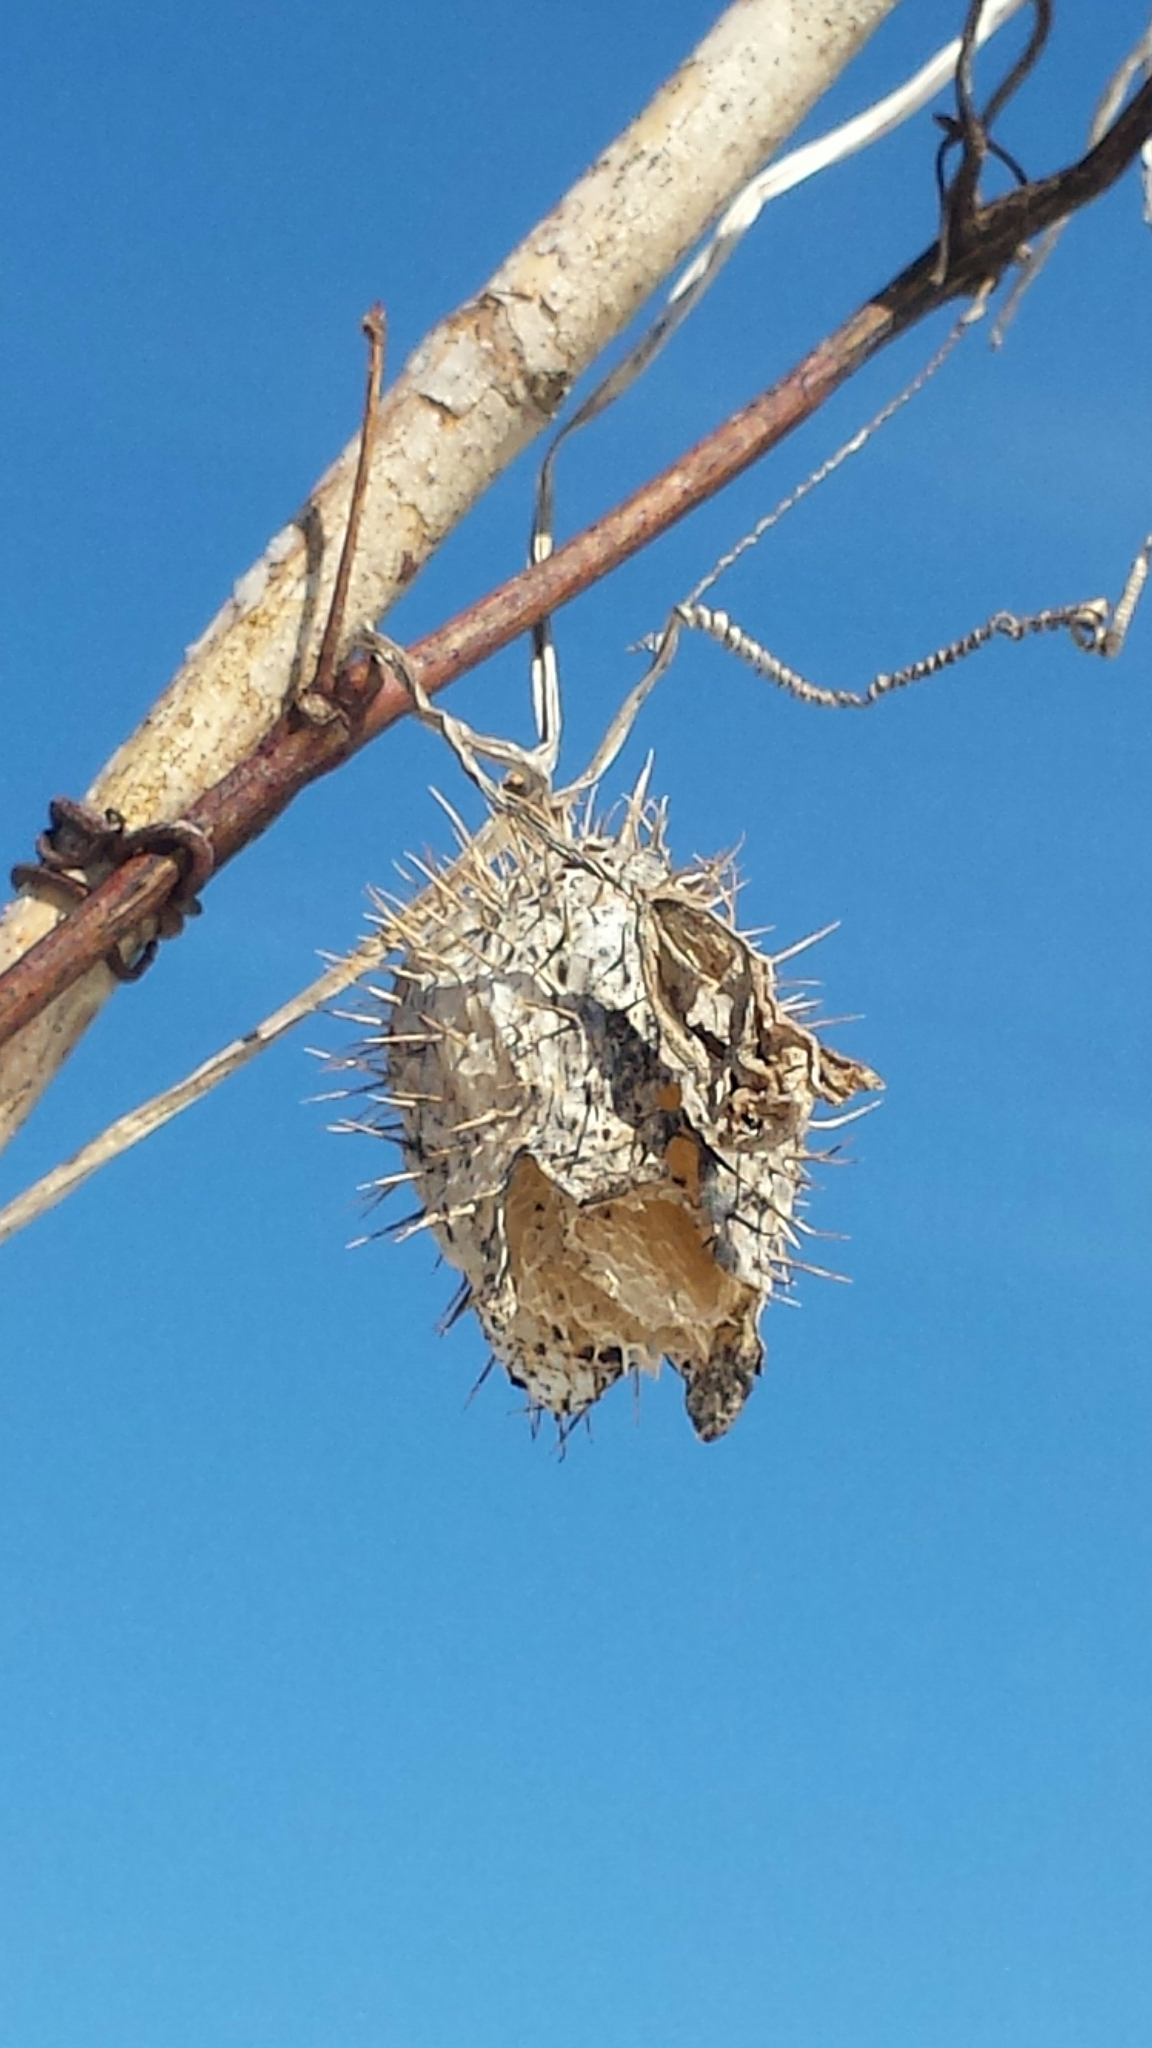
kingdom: Plantae
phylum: Tracheophyta
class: Magnoliopsida
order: Cucurbitales
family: Cucurbitaceae
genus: Echinocystis
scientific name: Echinocystis lobata
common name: Wild cucumber
